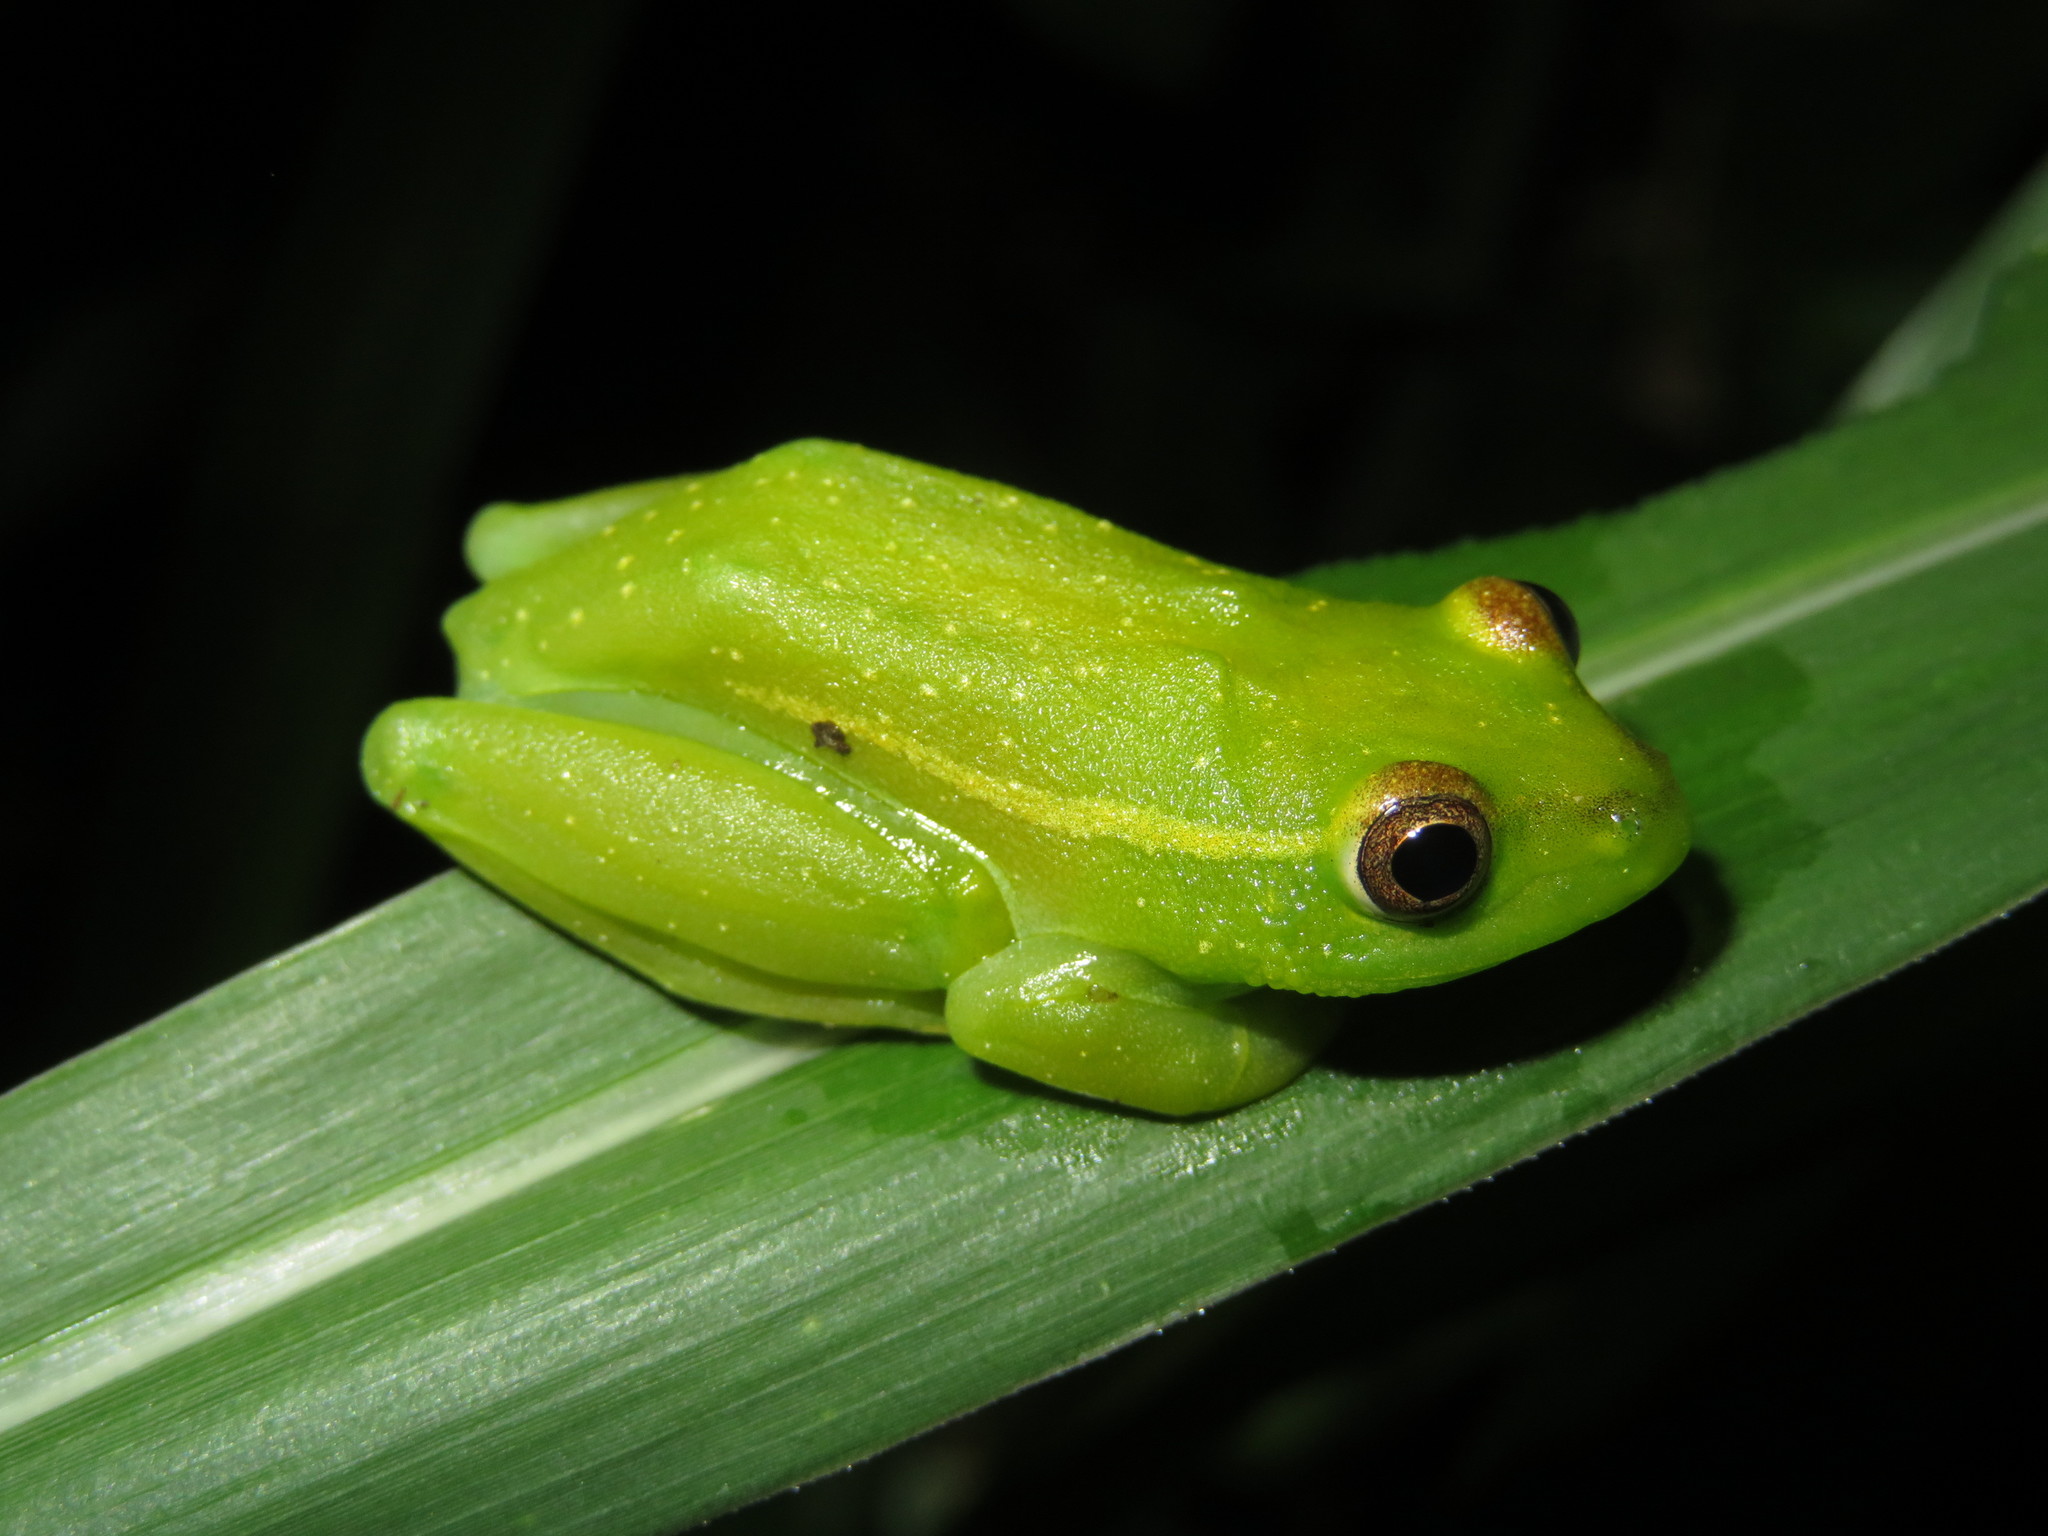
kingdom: Animalia
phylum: Chordata
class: Amphibia
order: Anura
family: Hyperoliidae
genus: Hyperolius
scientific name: Hyperolius argus
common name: Argus reed frog
